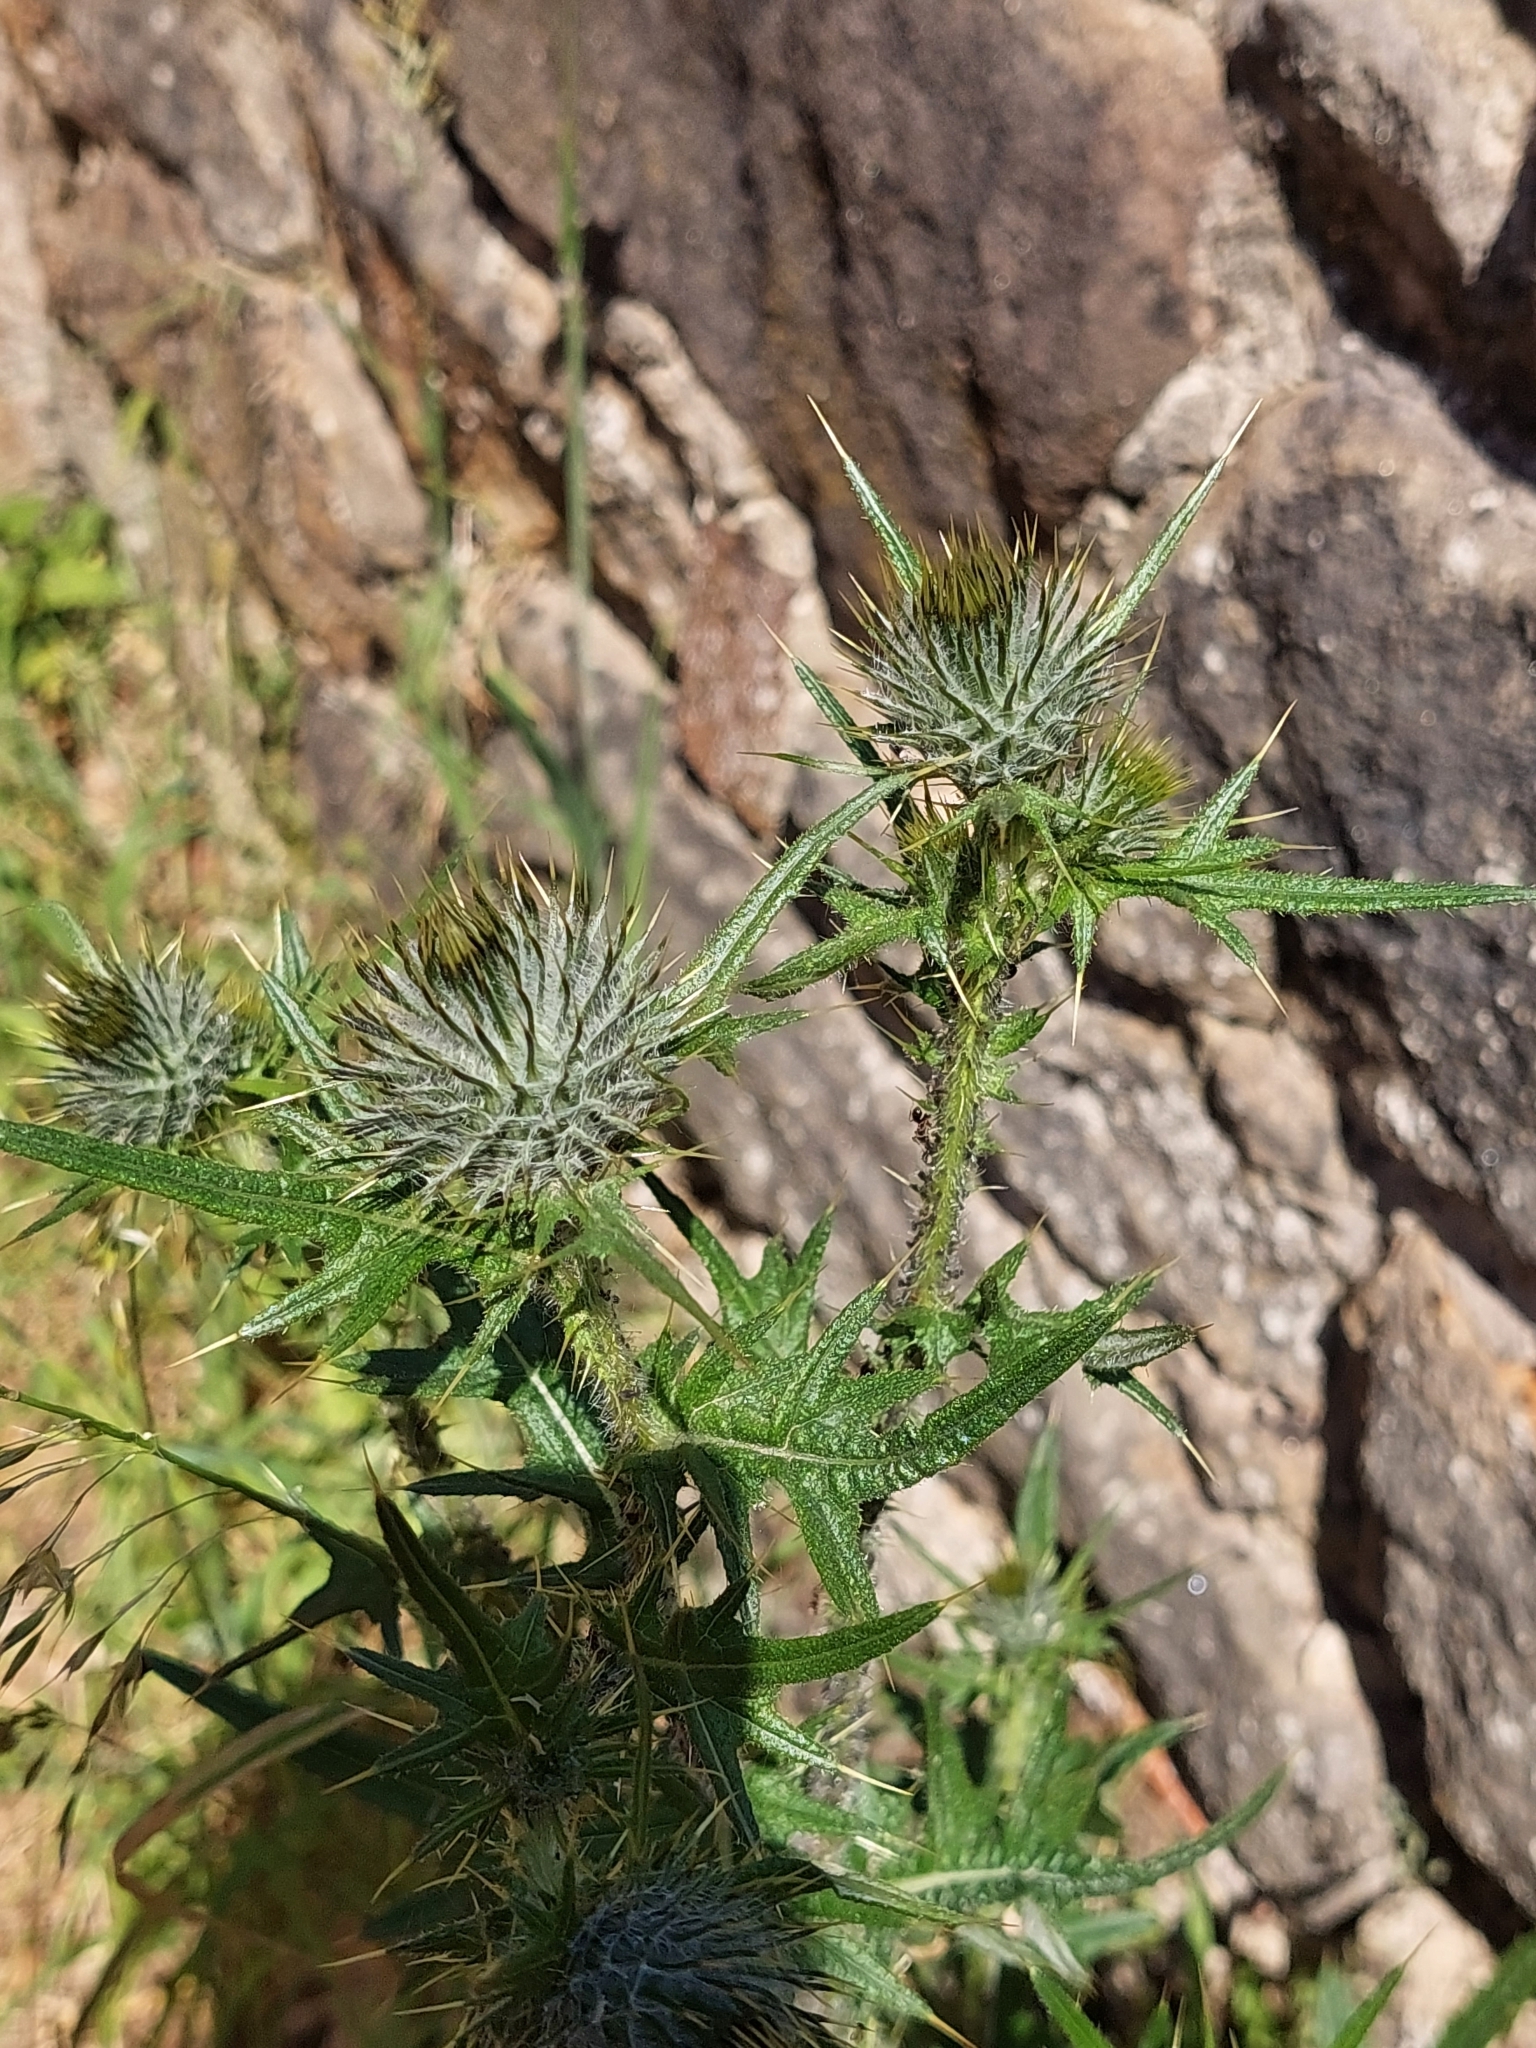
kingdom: Plantae
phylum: Tracheophyta
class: Magnoliopsida
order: Asterales
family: Asteraceae
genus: Cirsium
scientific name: Cirsium vulgare
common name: Bull thistle
